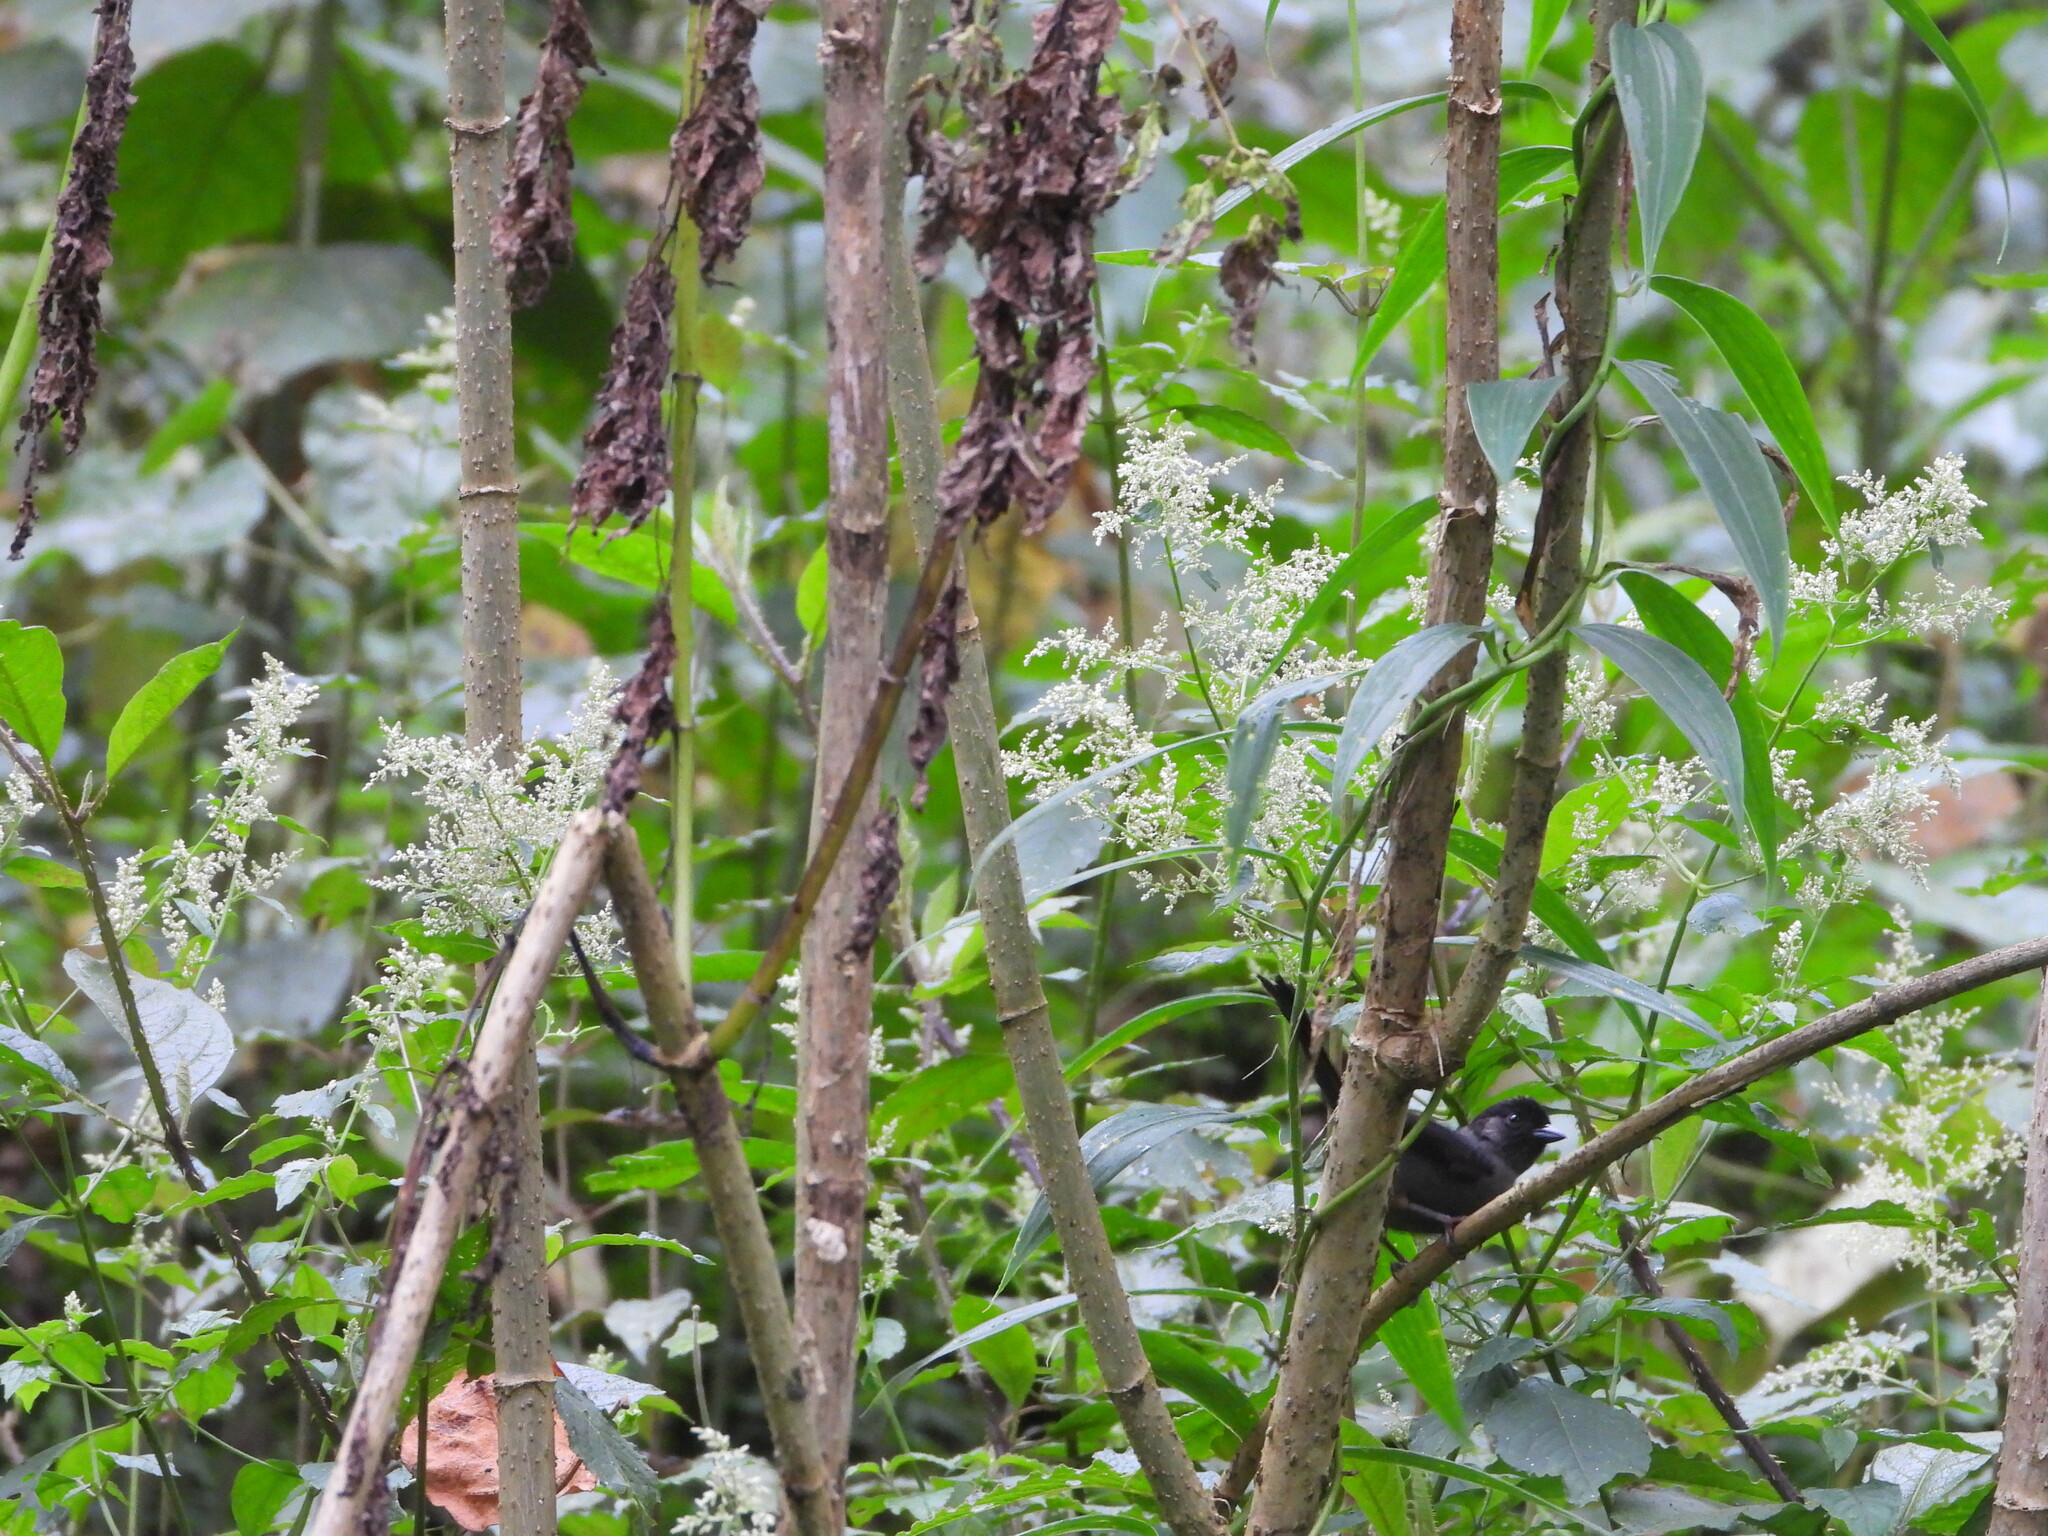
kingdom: Animalia
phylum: Chordata
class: Aves
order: Passeriformes
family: Passerellidae
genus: Atlapetes
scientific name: Atlapetes tibialis
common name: Yellow-thighed brushfinch
